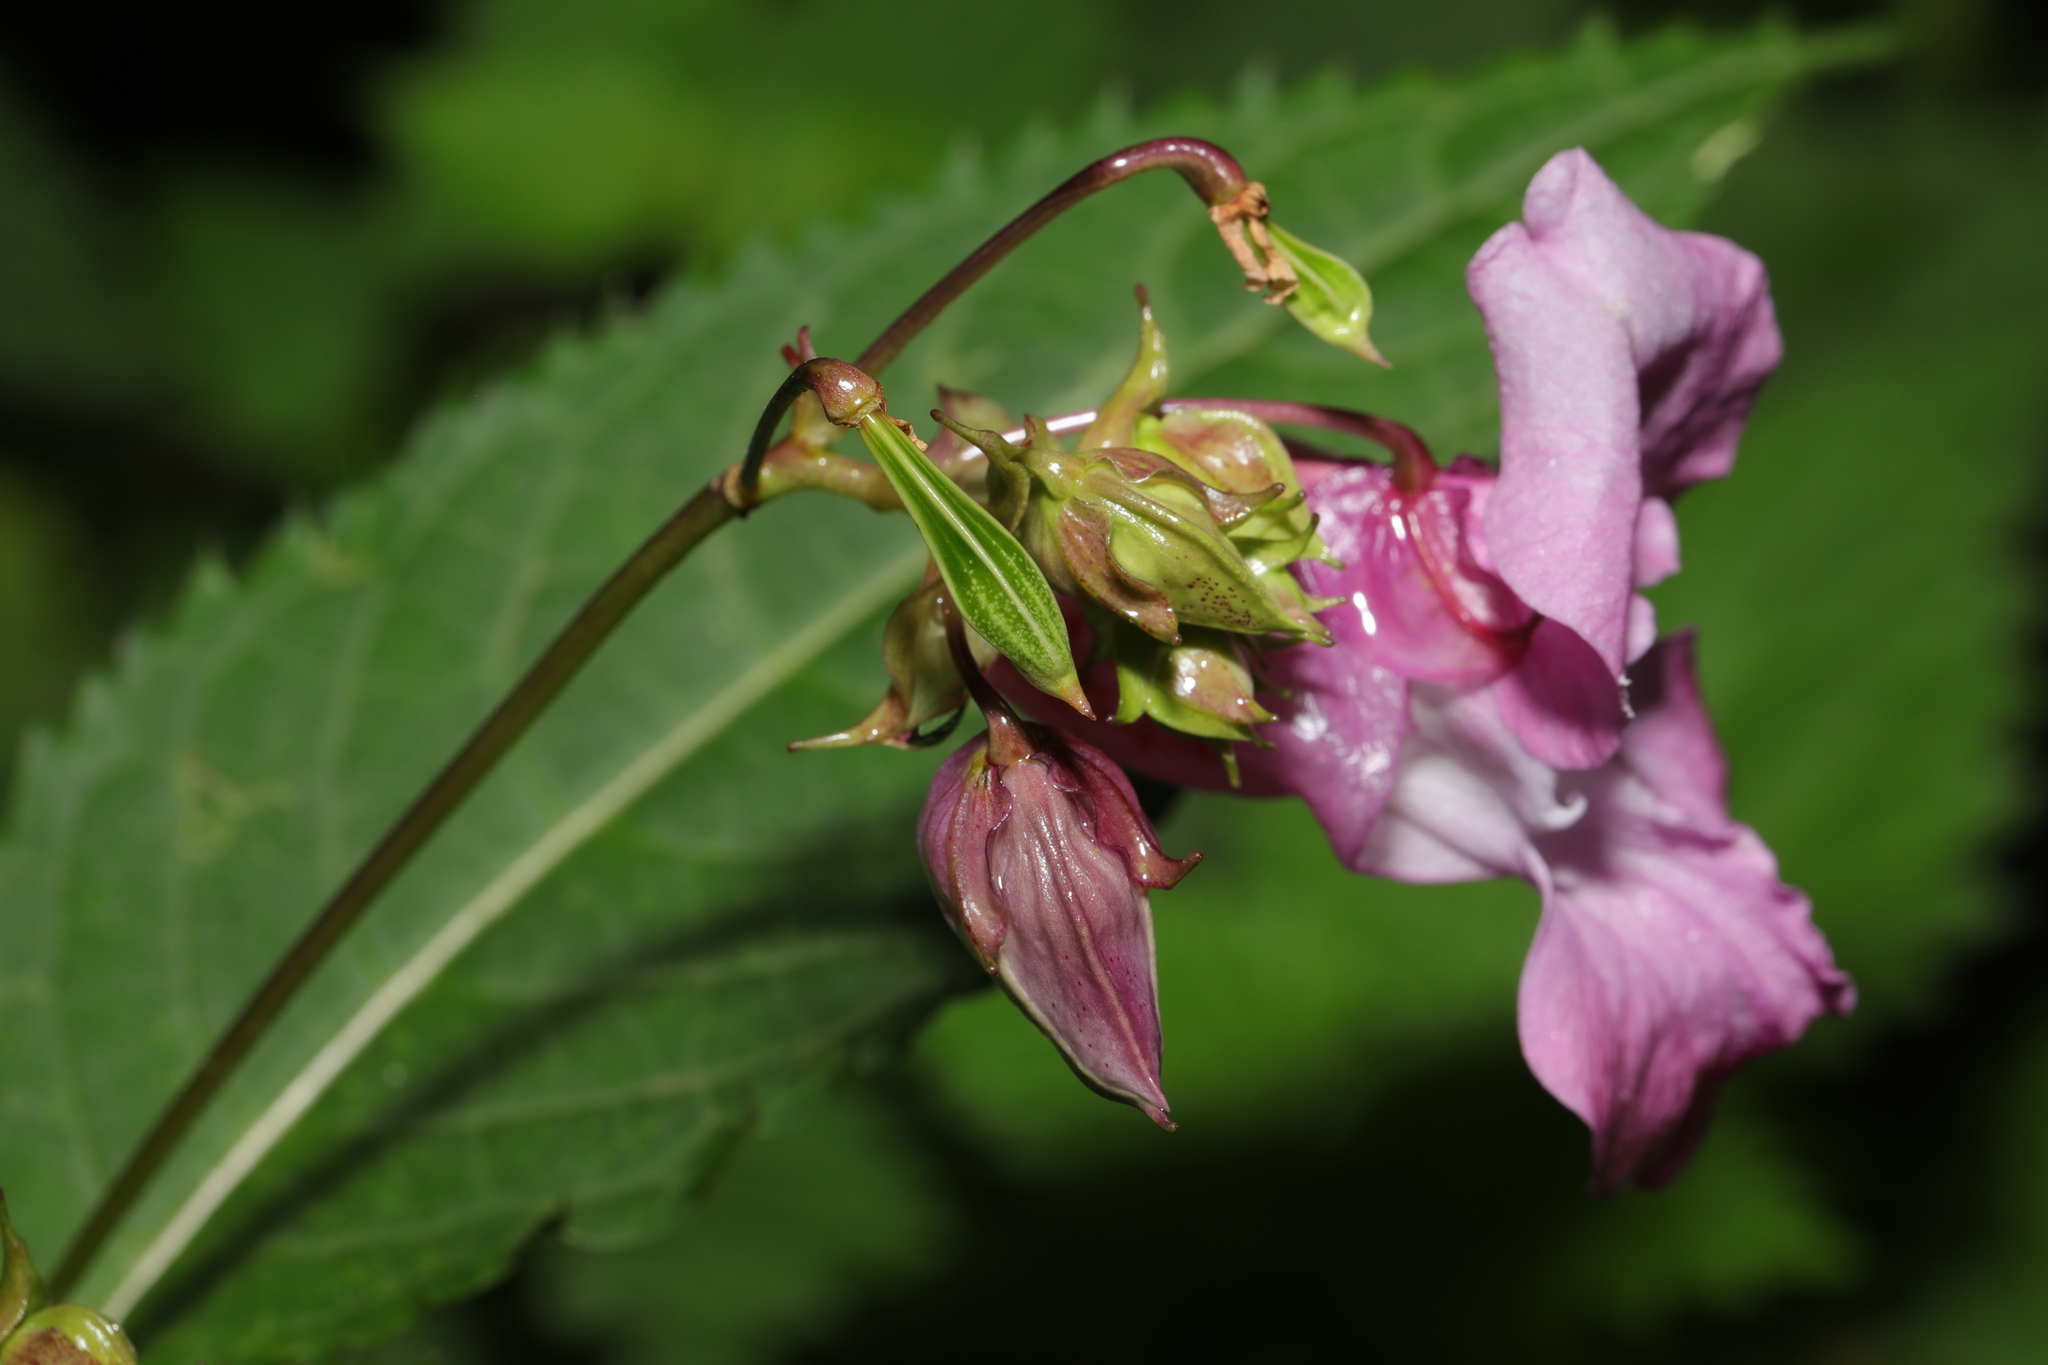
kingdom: Plantae
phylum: Tracheophyta
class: Magnoliopsida
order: Ericales
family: Balsaminaceae
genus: Impatiens
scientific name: Impatiens glandulifera
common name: Himalayan balsam
